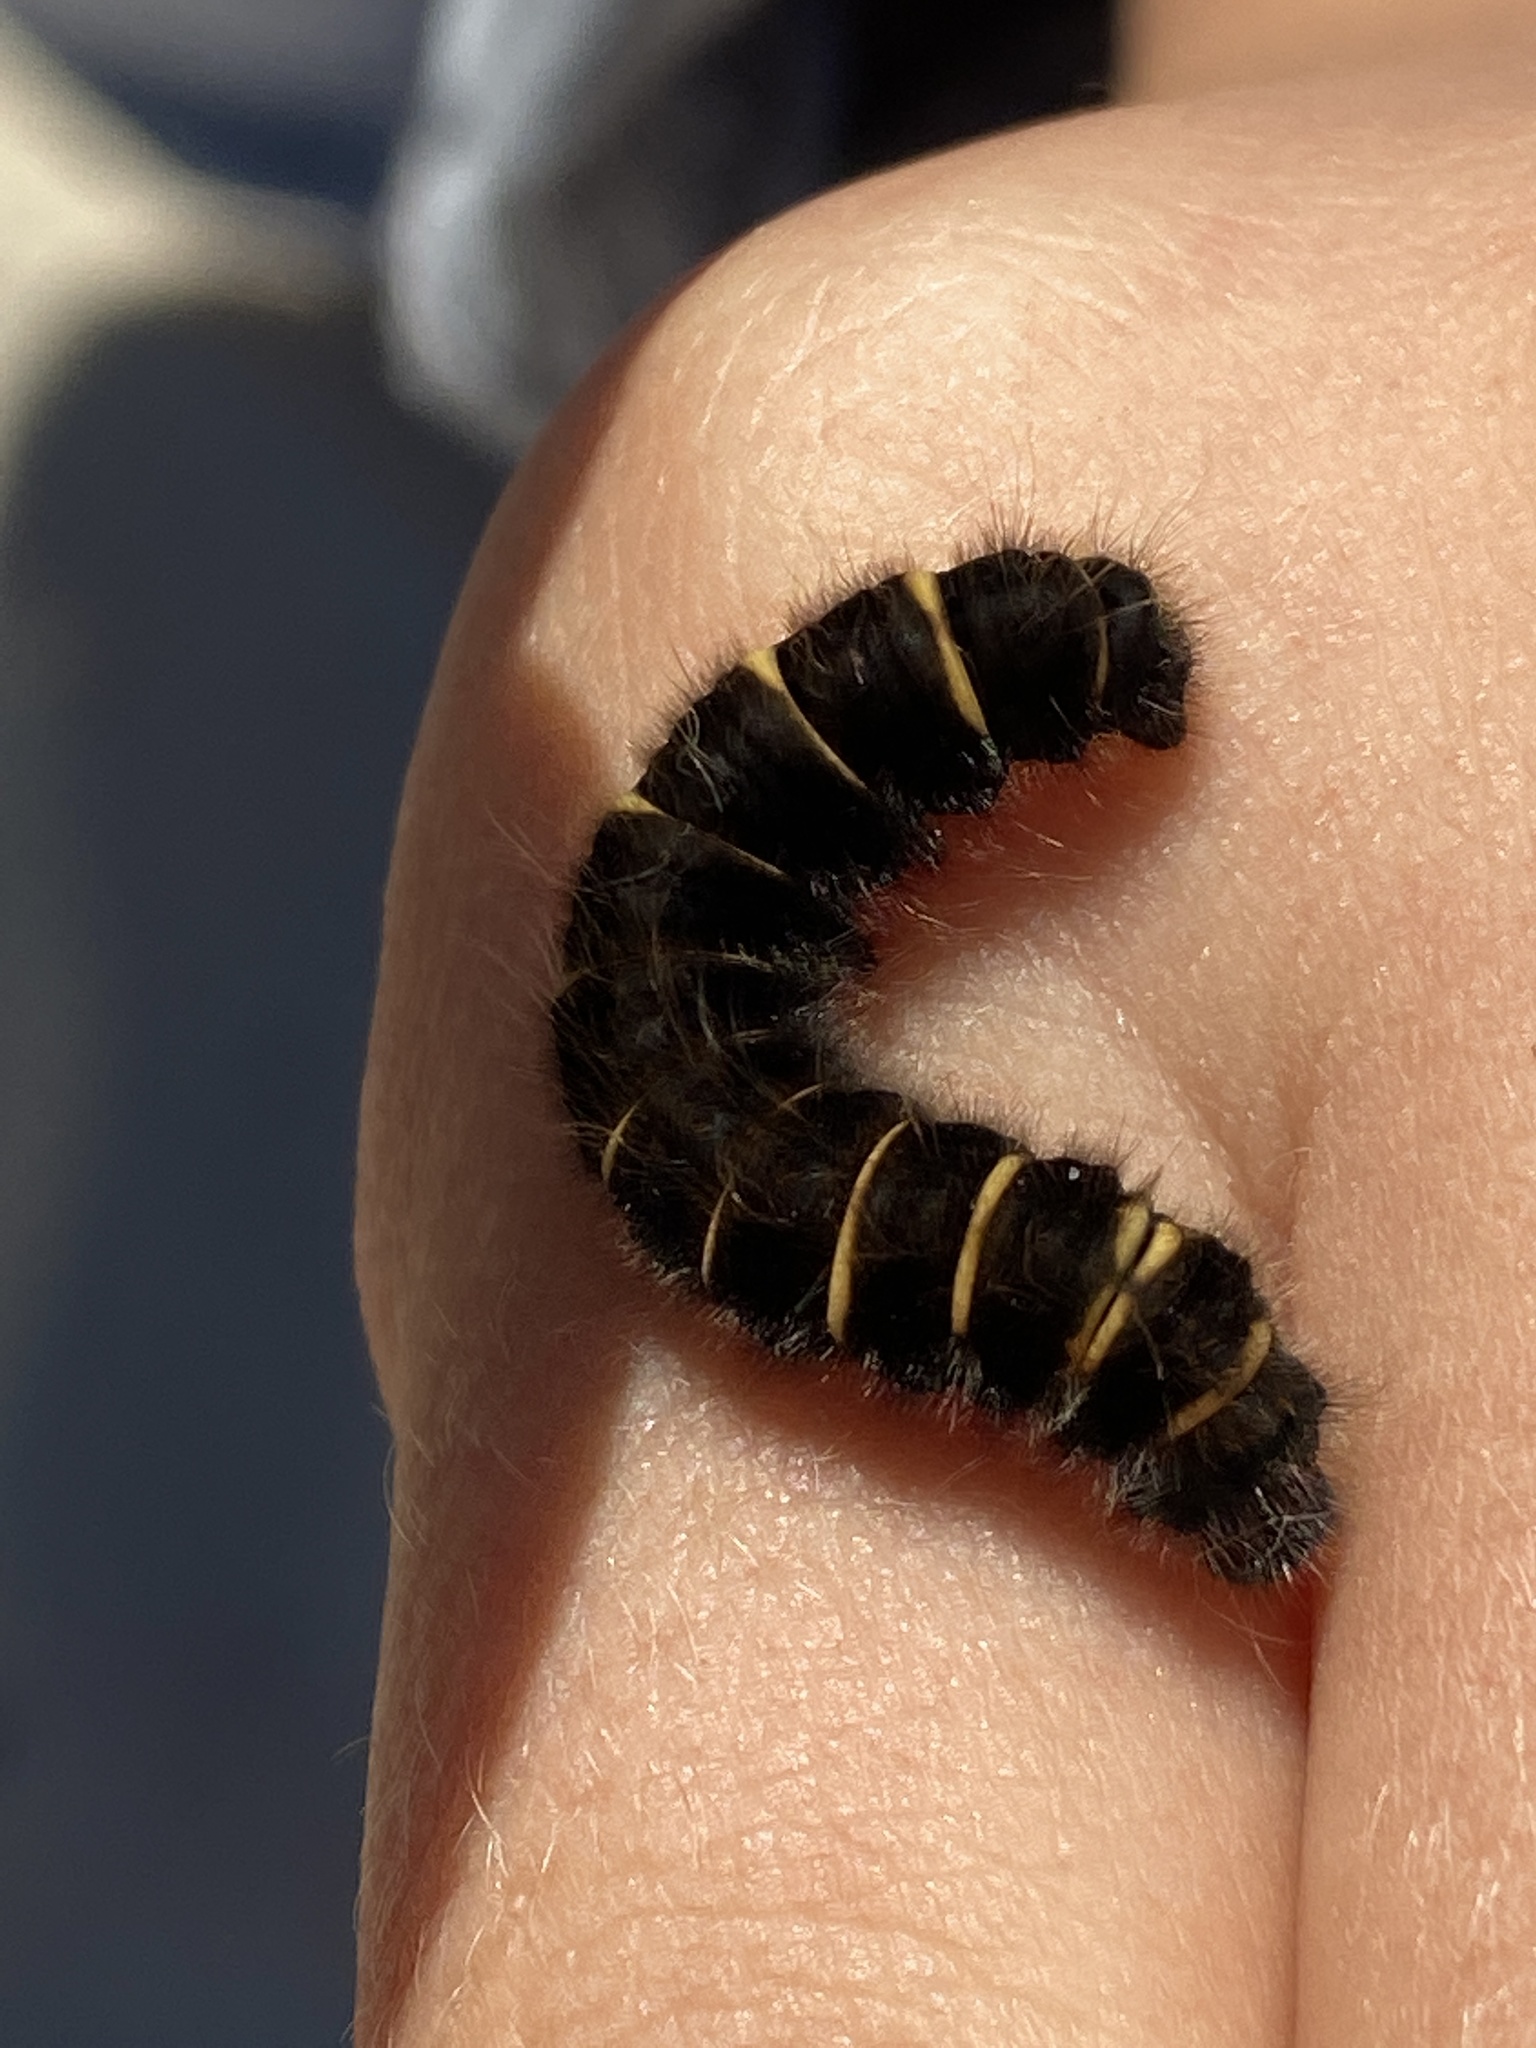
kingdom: Animalia
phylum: Arthropoda
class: Insecta
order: Lepidoptera
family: Lasiocampidae
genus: Macrothylacia
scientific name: Macrothylacia rubi
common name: Fox moth
